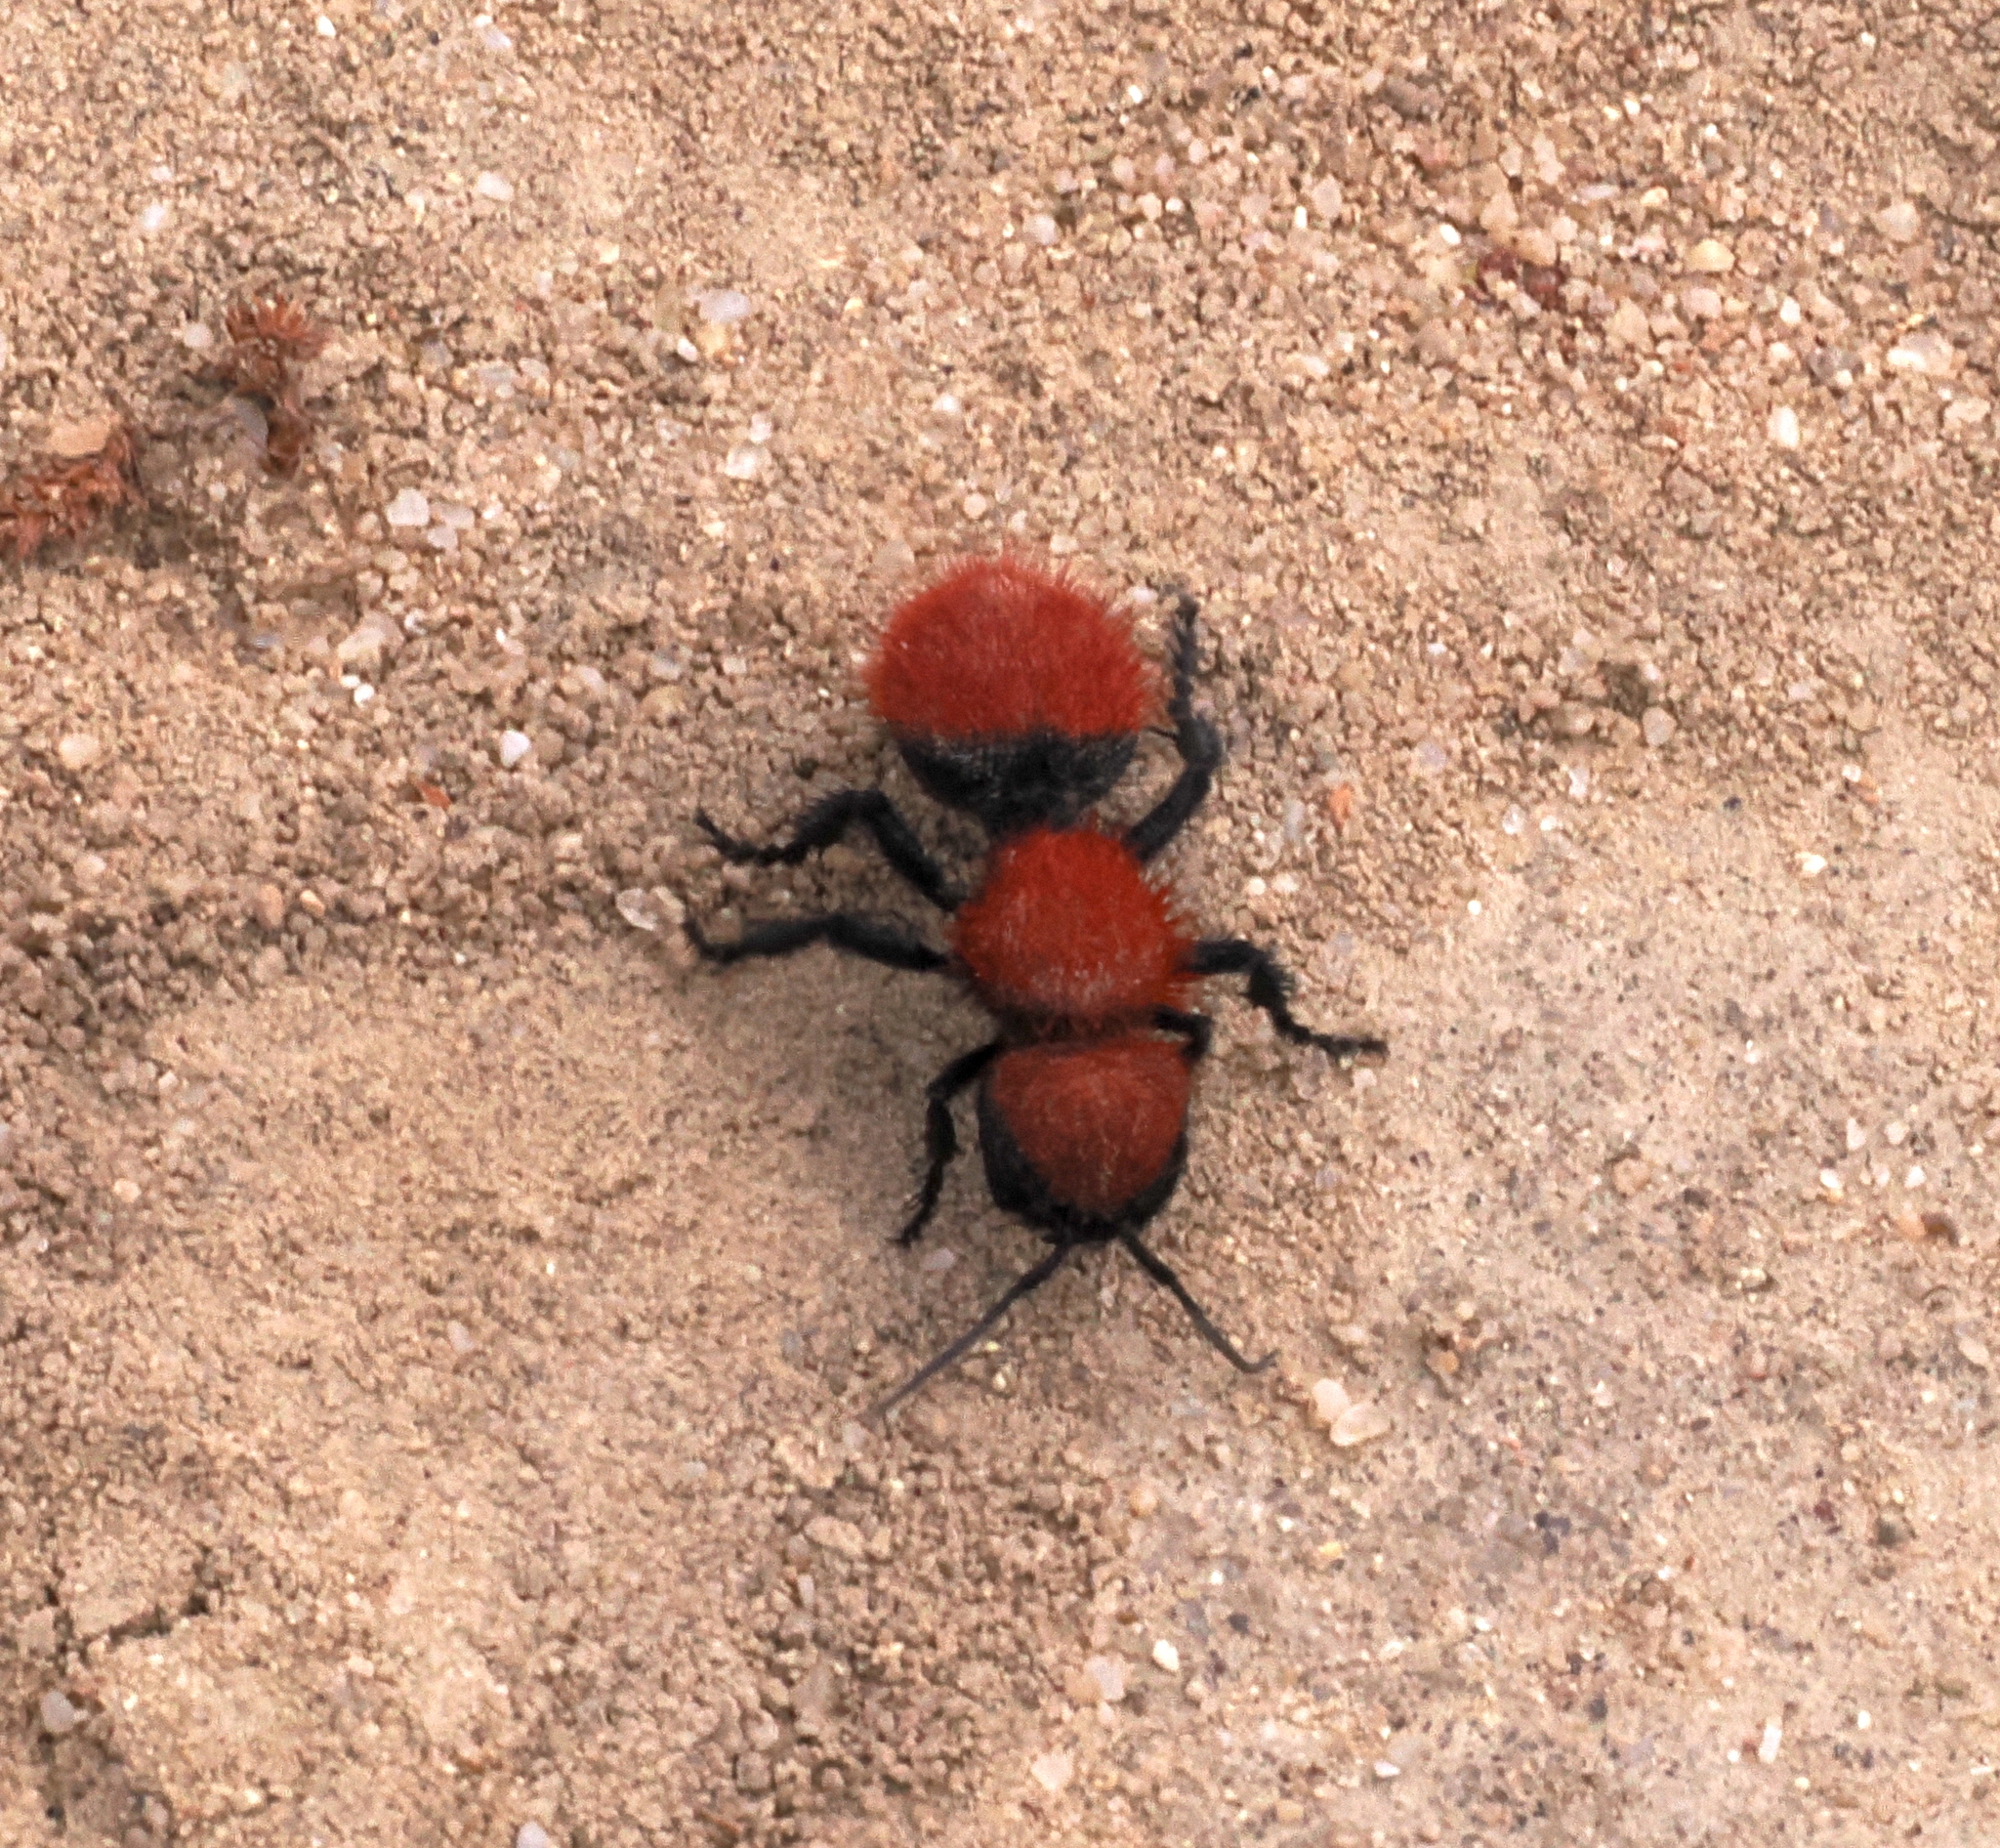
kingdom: Animalia
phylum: Arthropoda
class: Insecta
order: Hymenoptera
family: Mutillidae
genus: Dasymutilla
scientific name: Dasymutilla
